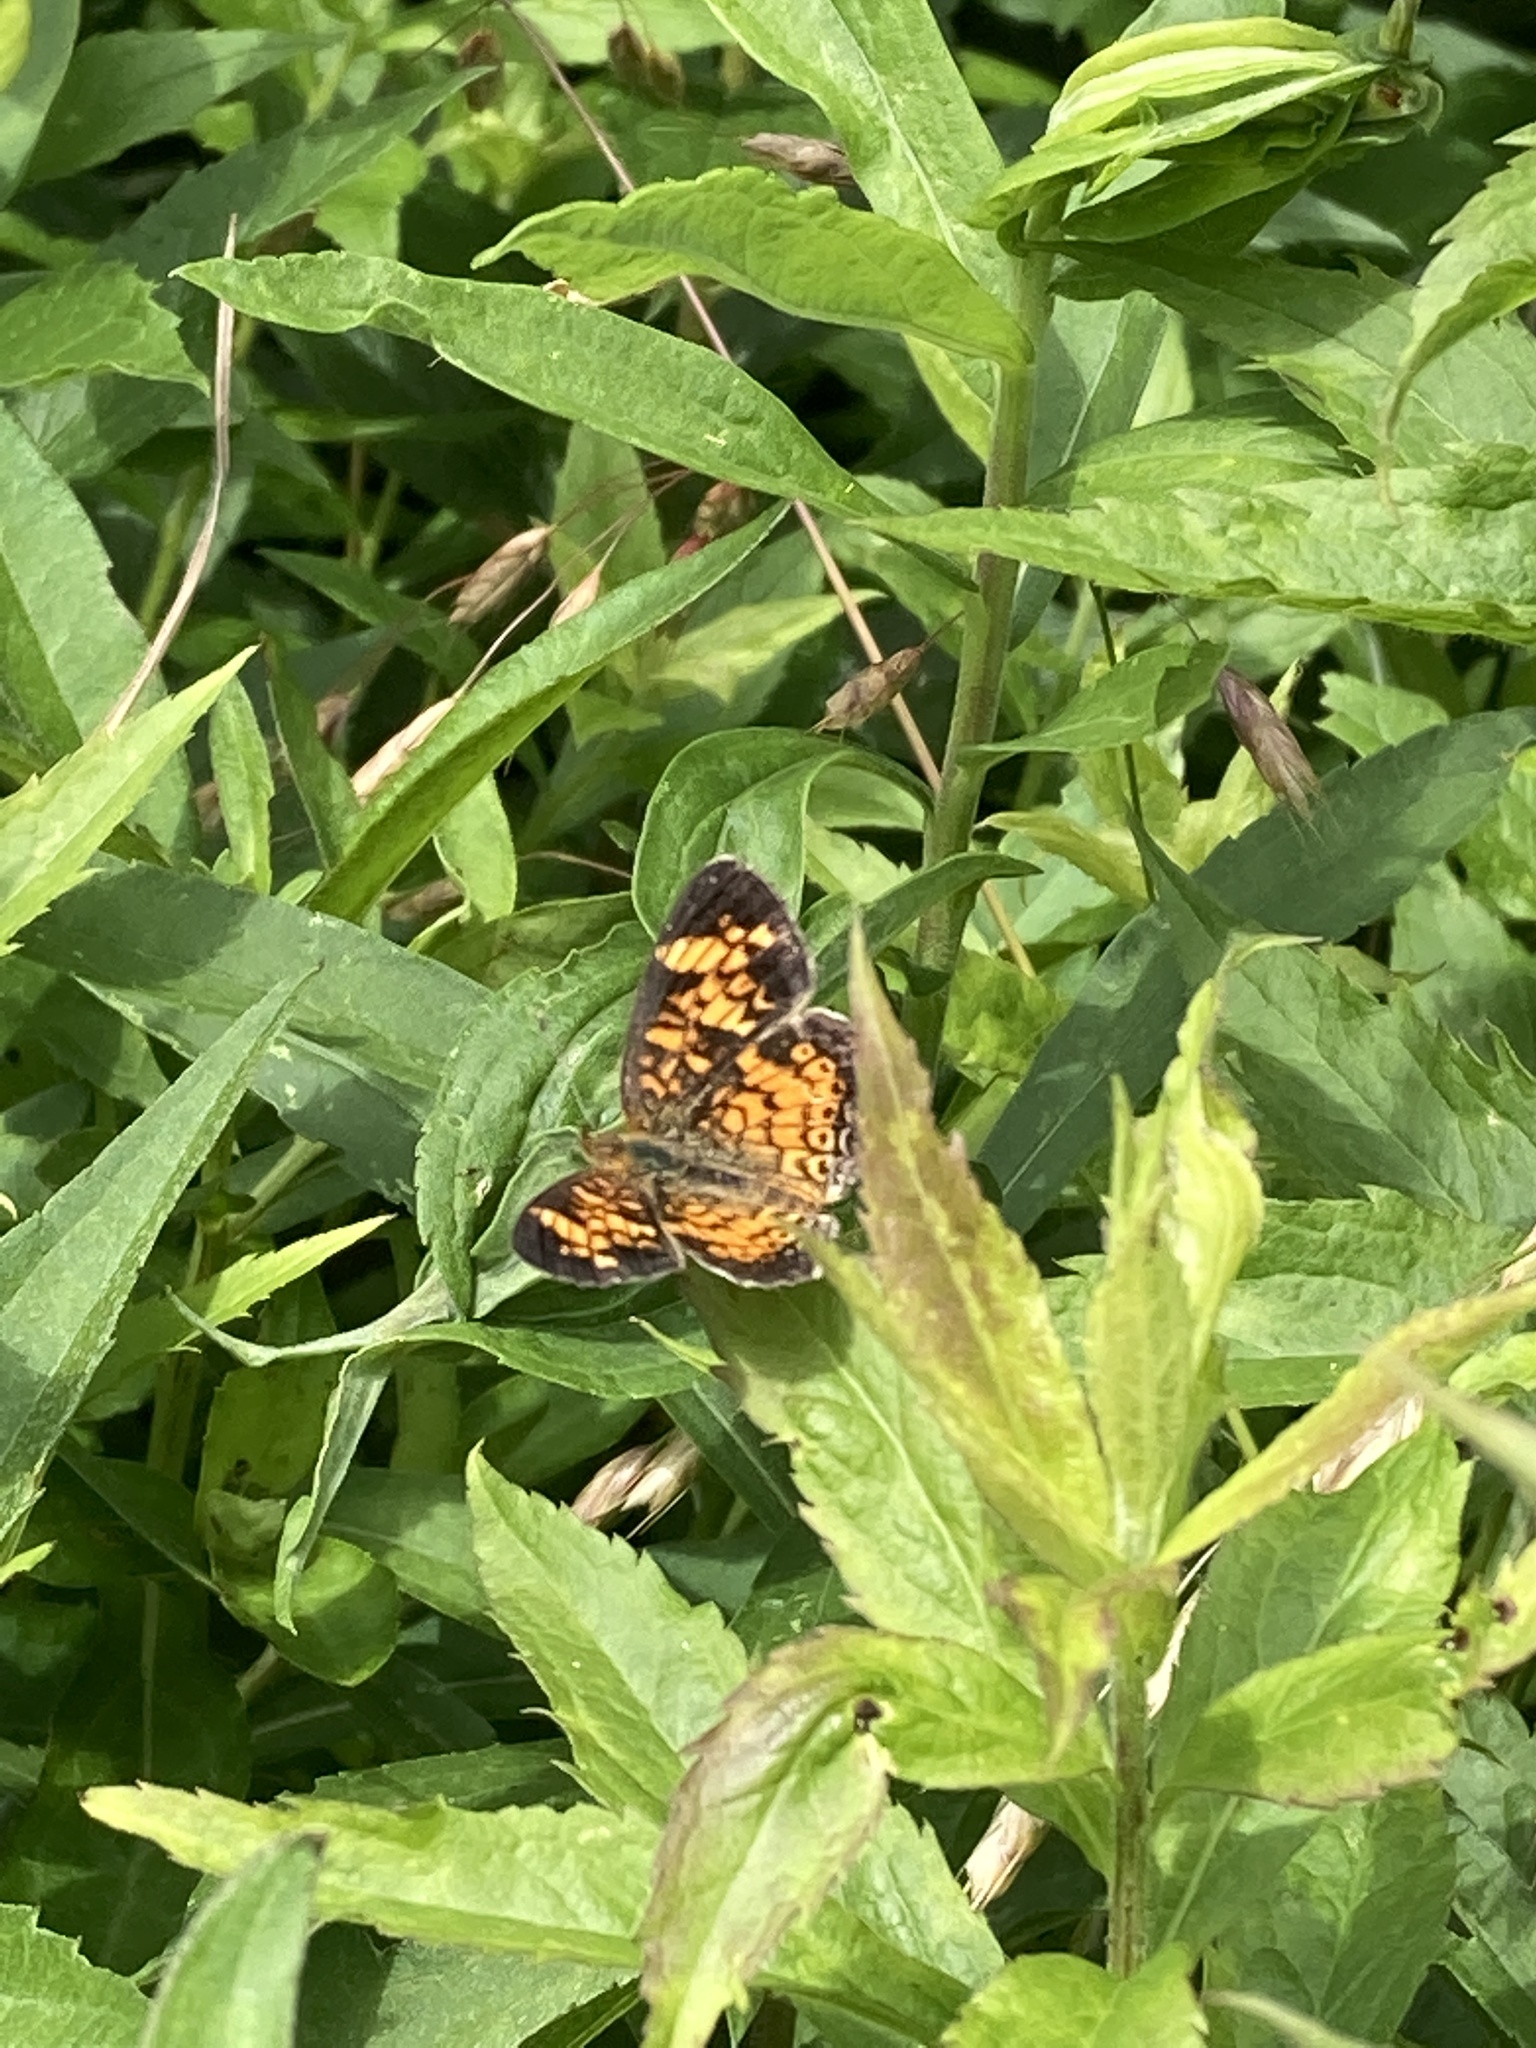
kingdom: Animalia
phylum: Arthropoda
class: Insecta
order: Lepidoptera
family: Nymphalidae
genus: Phyciodes
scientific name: Phyciodes tharos
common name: Pearl crescent
